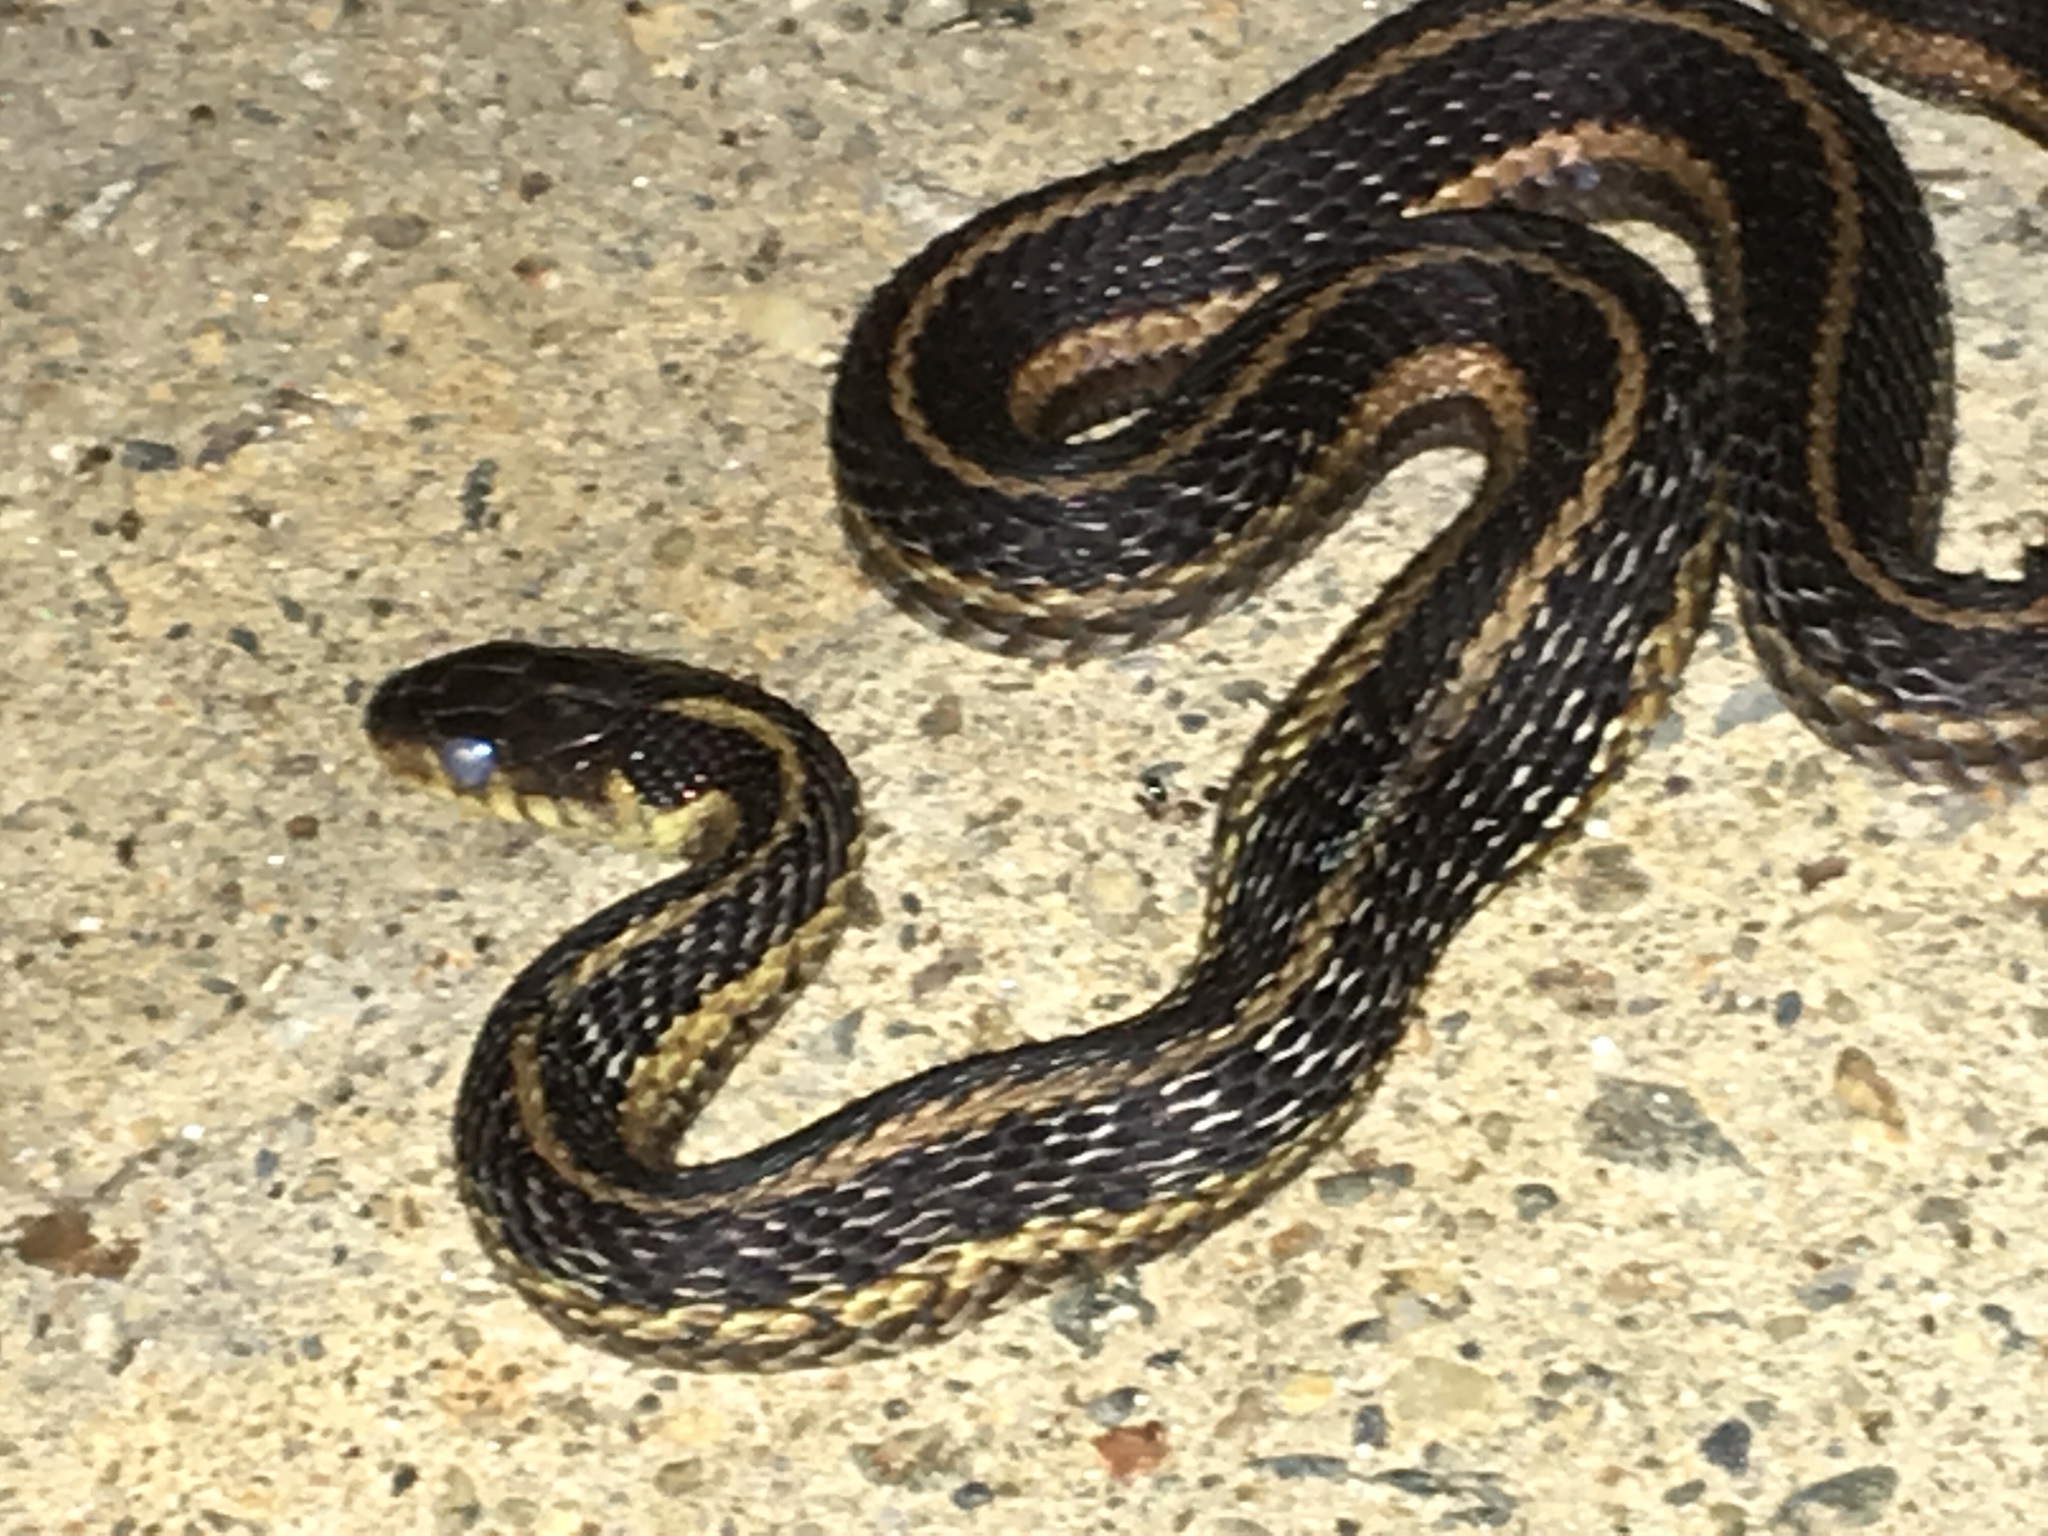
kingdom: Animalia
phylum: Chordata
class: Squamata
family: Colubridae
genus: Thamnophis
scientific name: Thamnophis sirtalis
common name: Common garter snake
